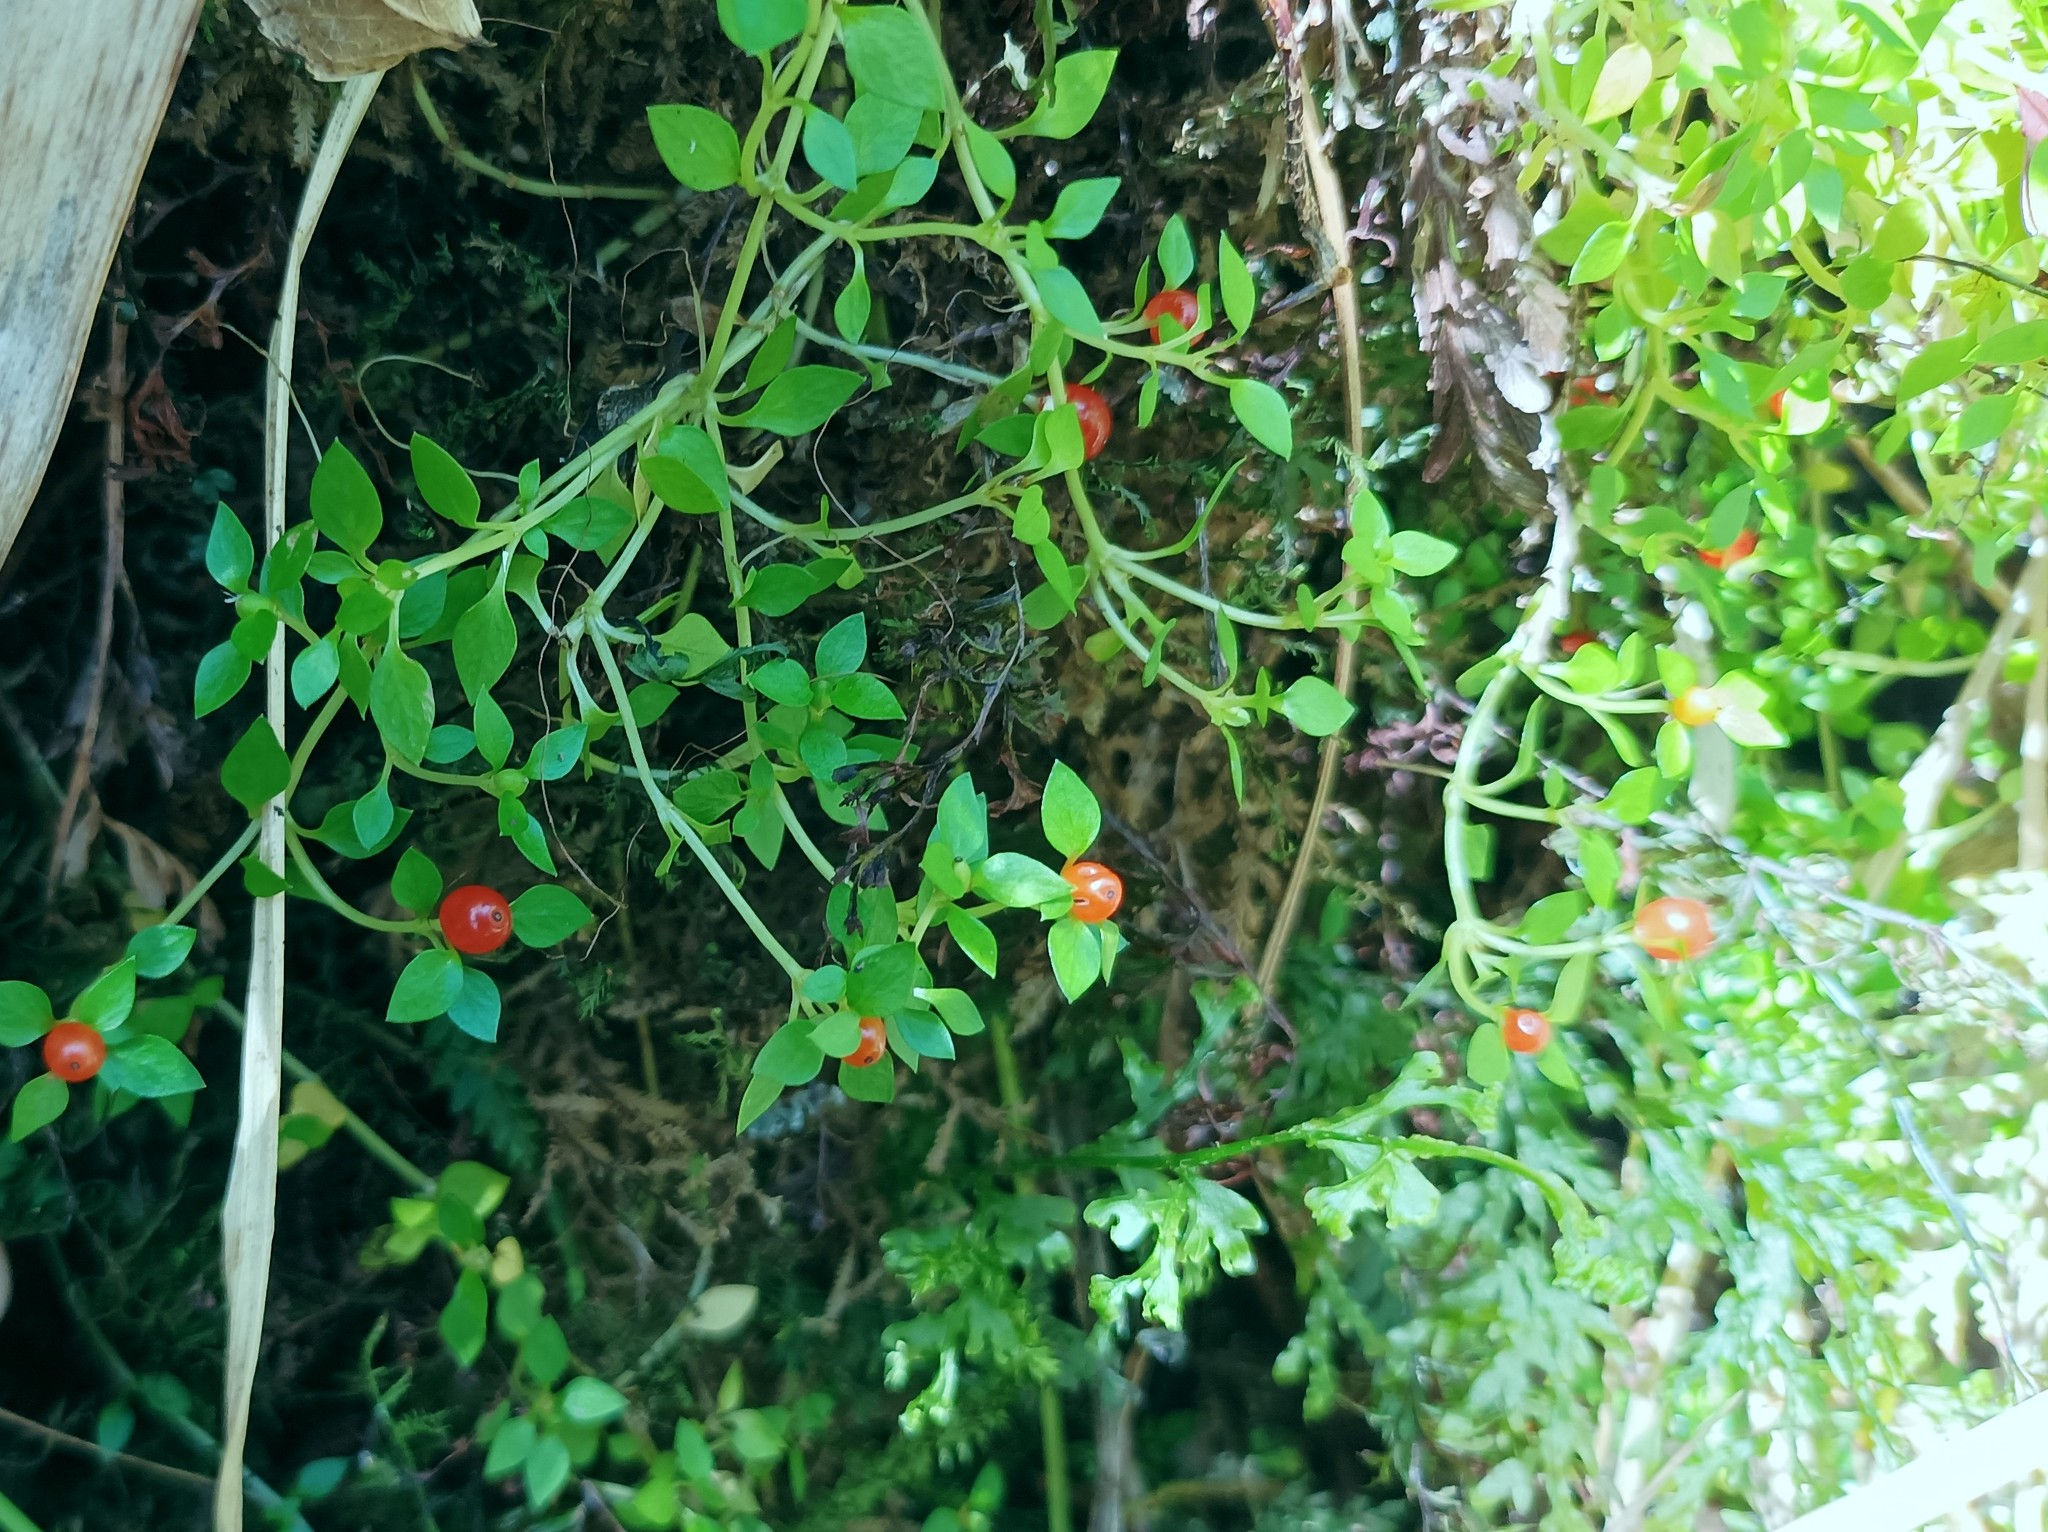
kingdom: Plantae
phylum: Tracheophyta
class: Magnoliopsida
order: Gentianales
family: Rubiaceae
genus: Nertera
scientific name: Nertera granadensis
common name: Beadplant
